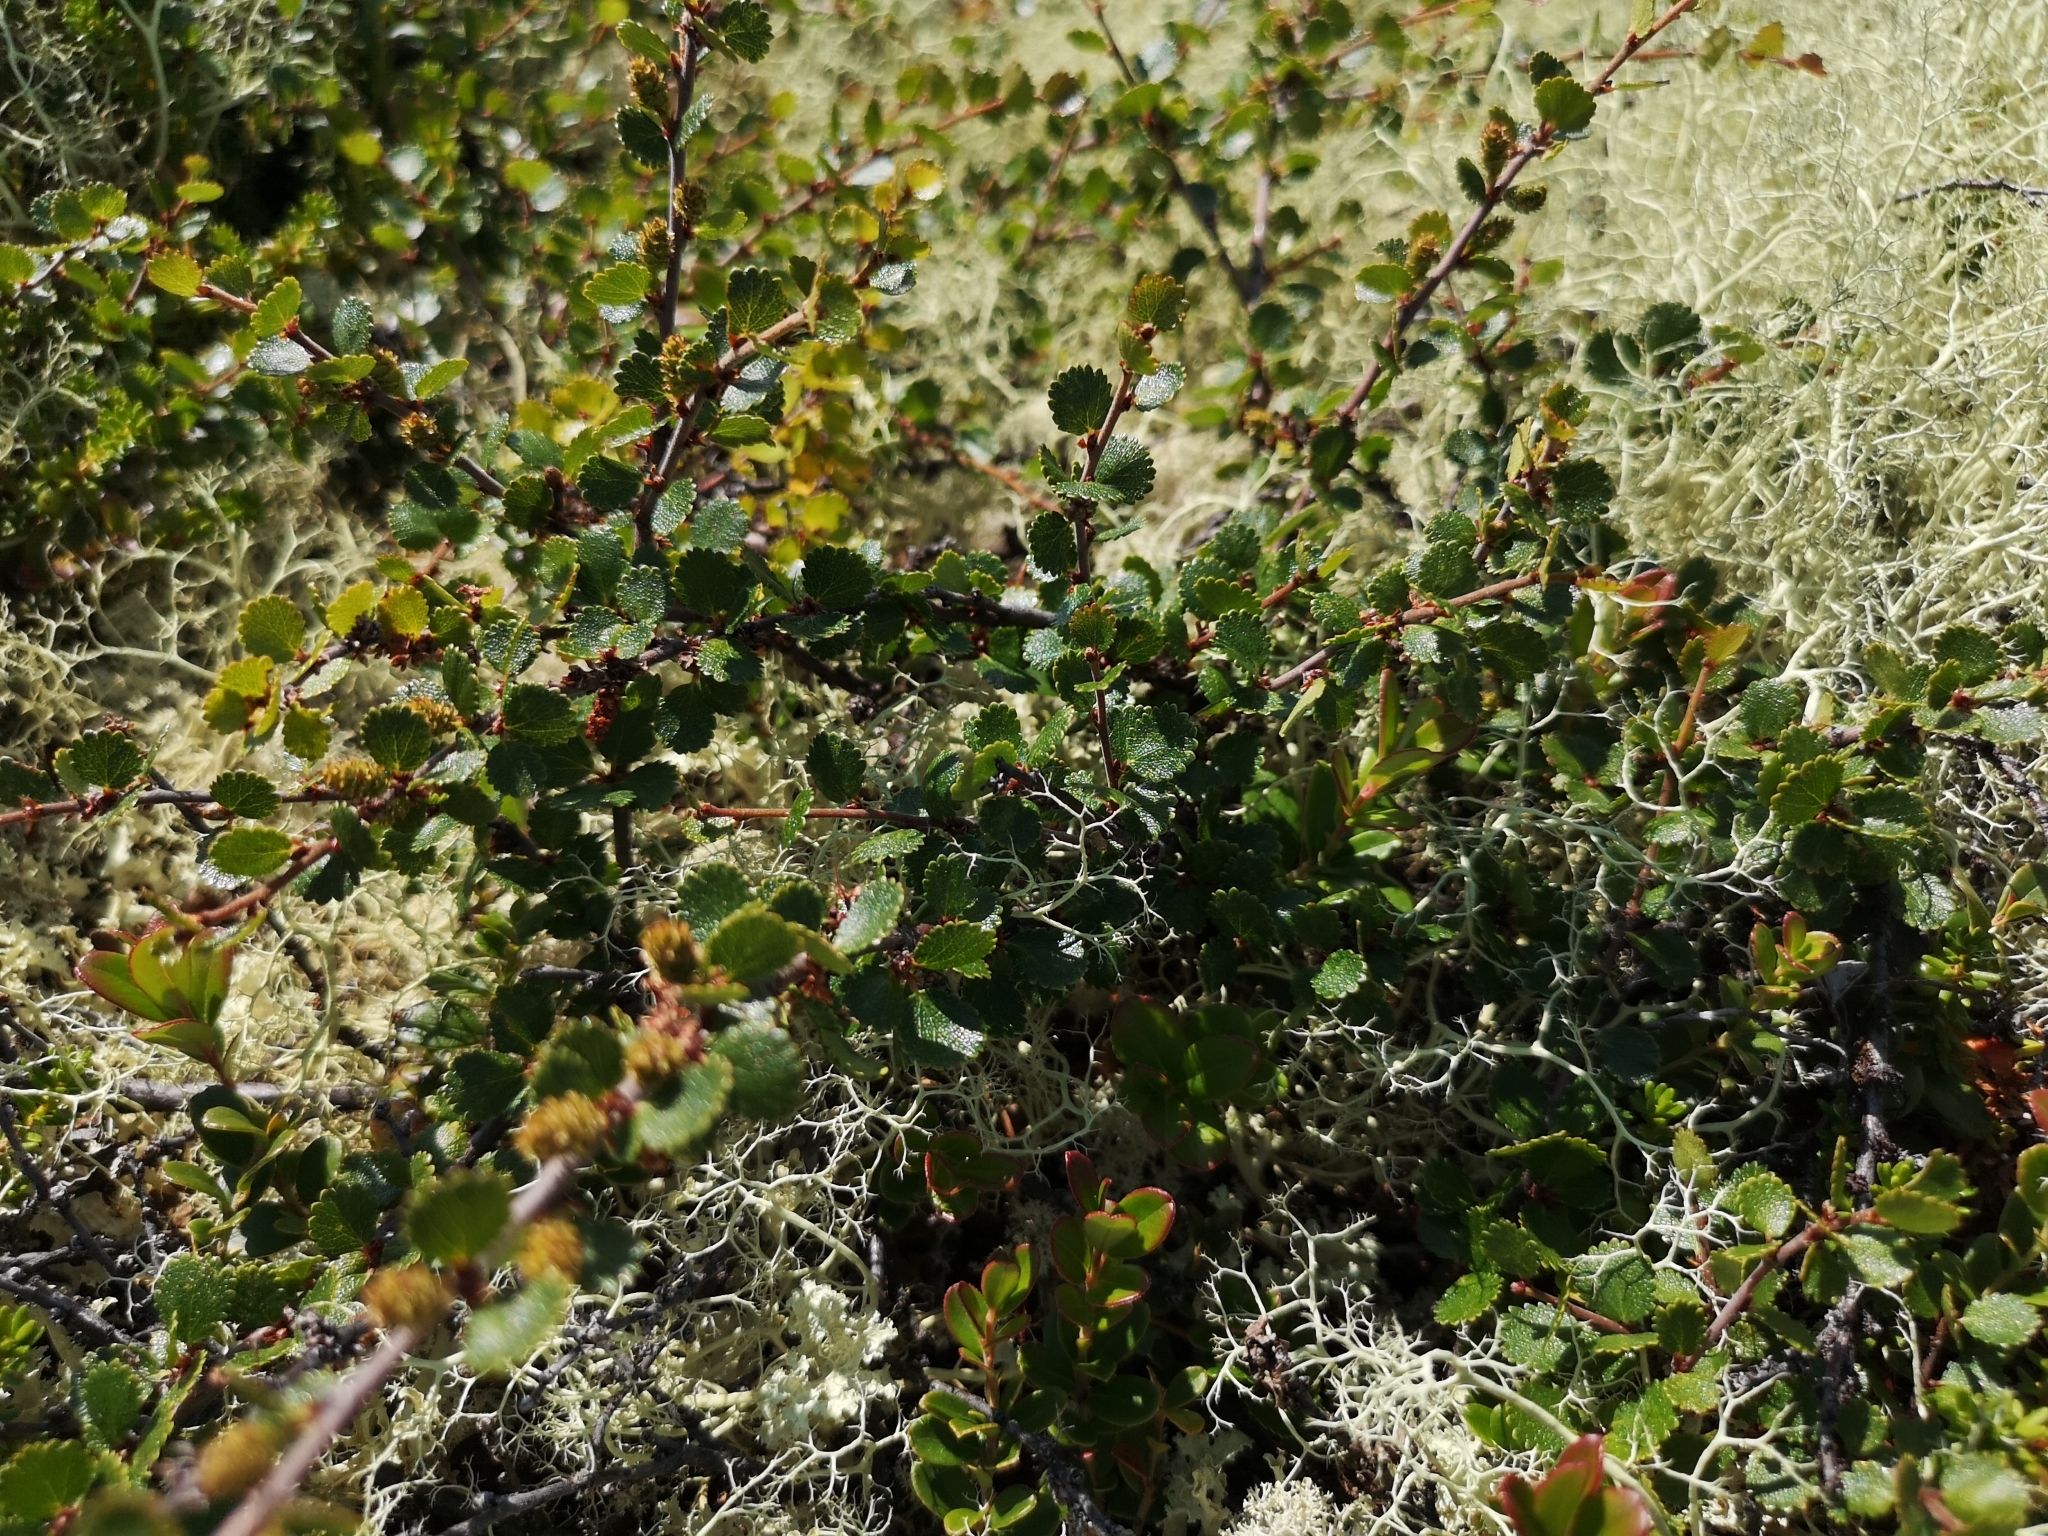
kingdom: Plantae
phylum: Tracheophyta
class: Magnoliopsida
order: Fagales
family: Betulaceae
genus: Betula
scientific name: Betula nana
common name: Arctic dwarf birch
